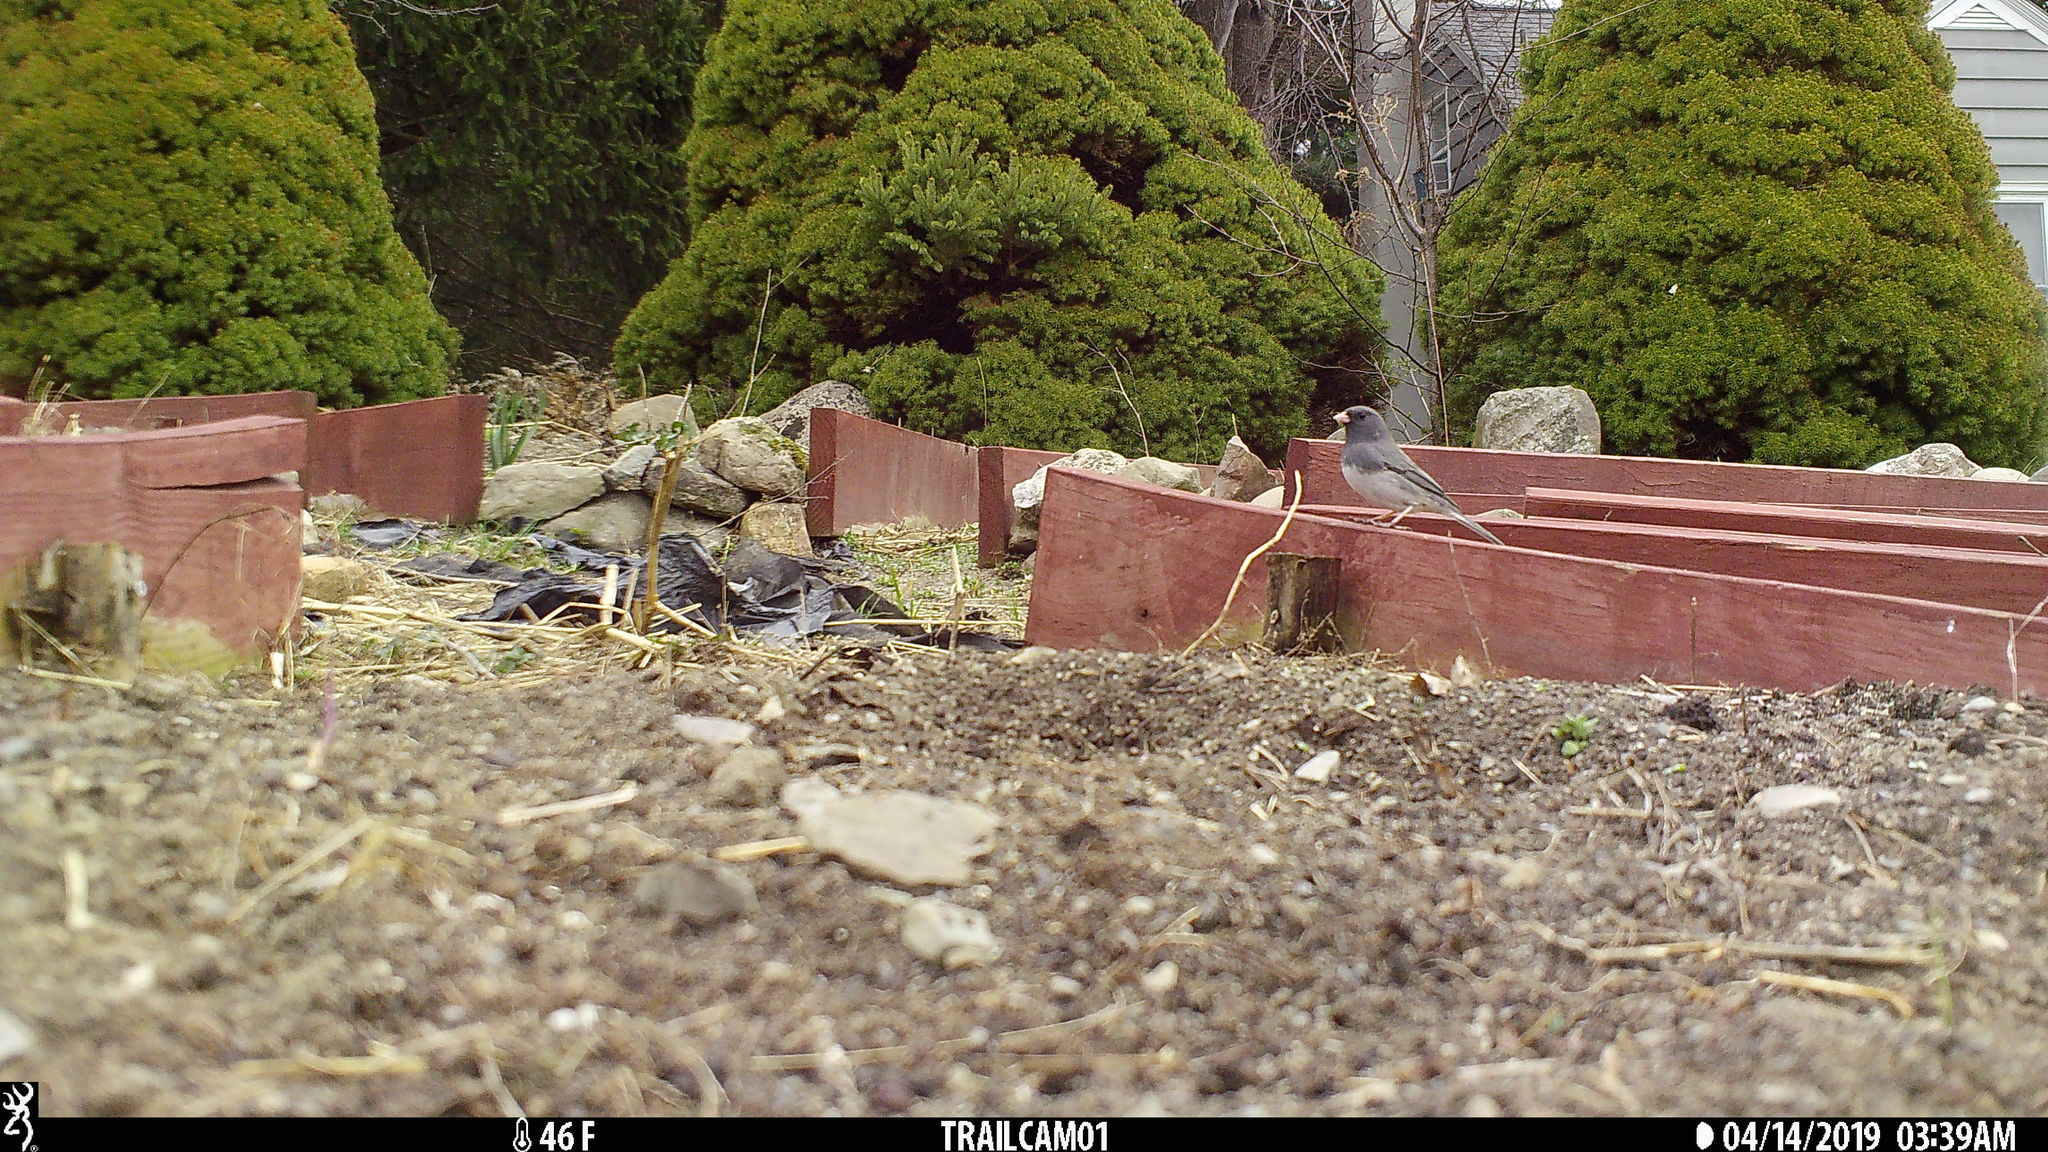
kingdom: Animalia
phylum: Chordata
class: Aves
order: Passeriformes
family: Passerellidae
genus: Junco
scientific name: Junco hyemalis
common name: Dark-eyed junco
